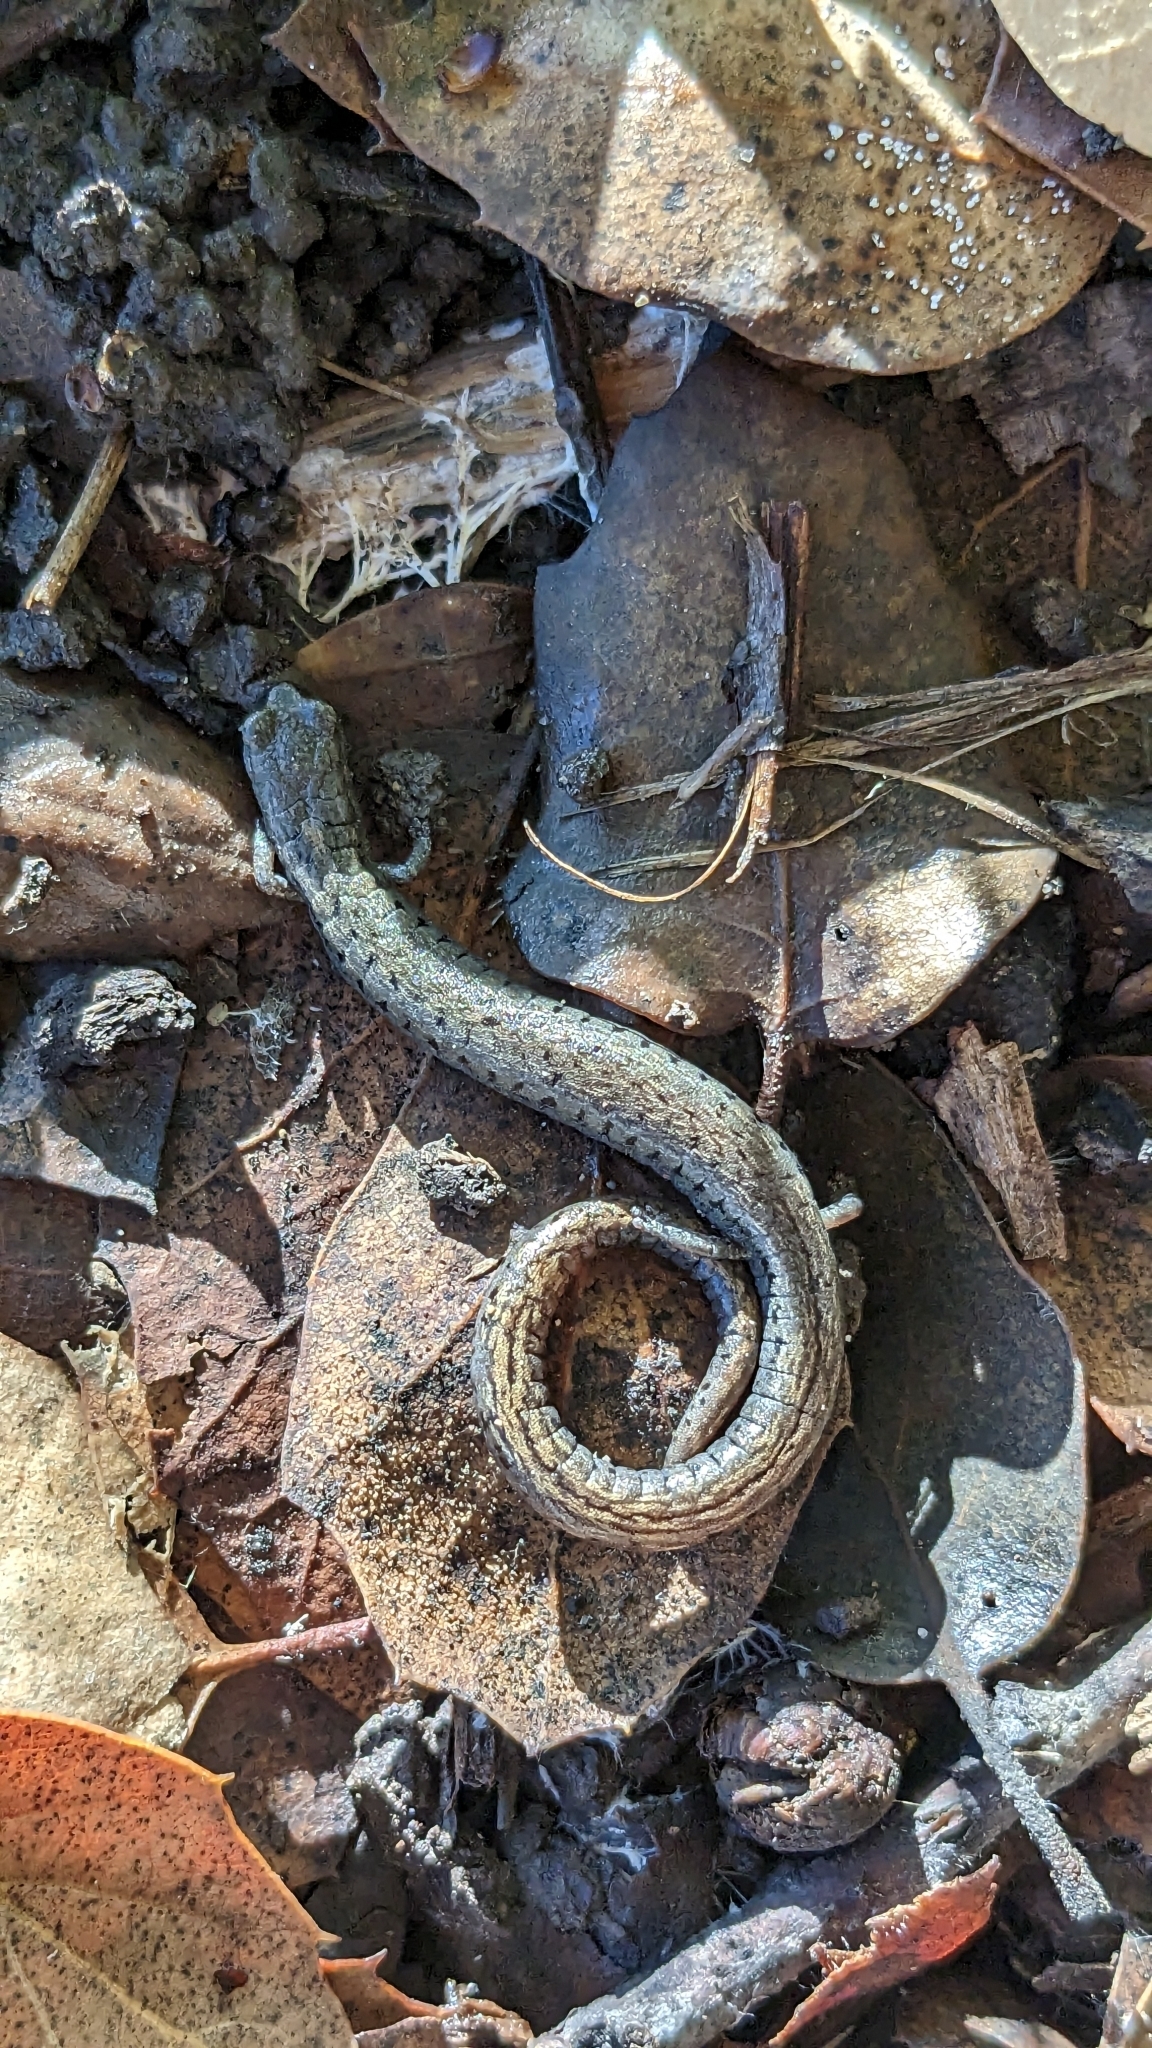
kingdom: Animalia
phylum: Chordata
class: Amphibia
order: Caudata
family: Plethodontidae
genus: Batrachoseps
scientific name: Batrachoseps attenuatus
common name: California slender salamander
